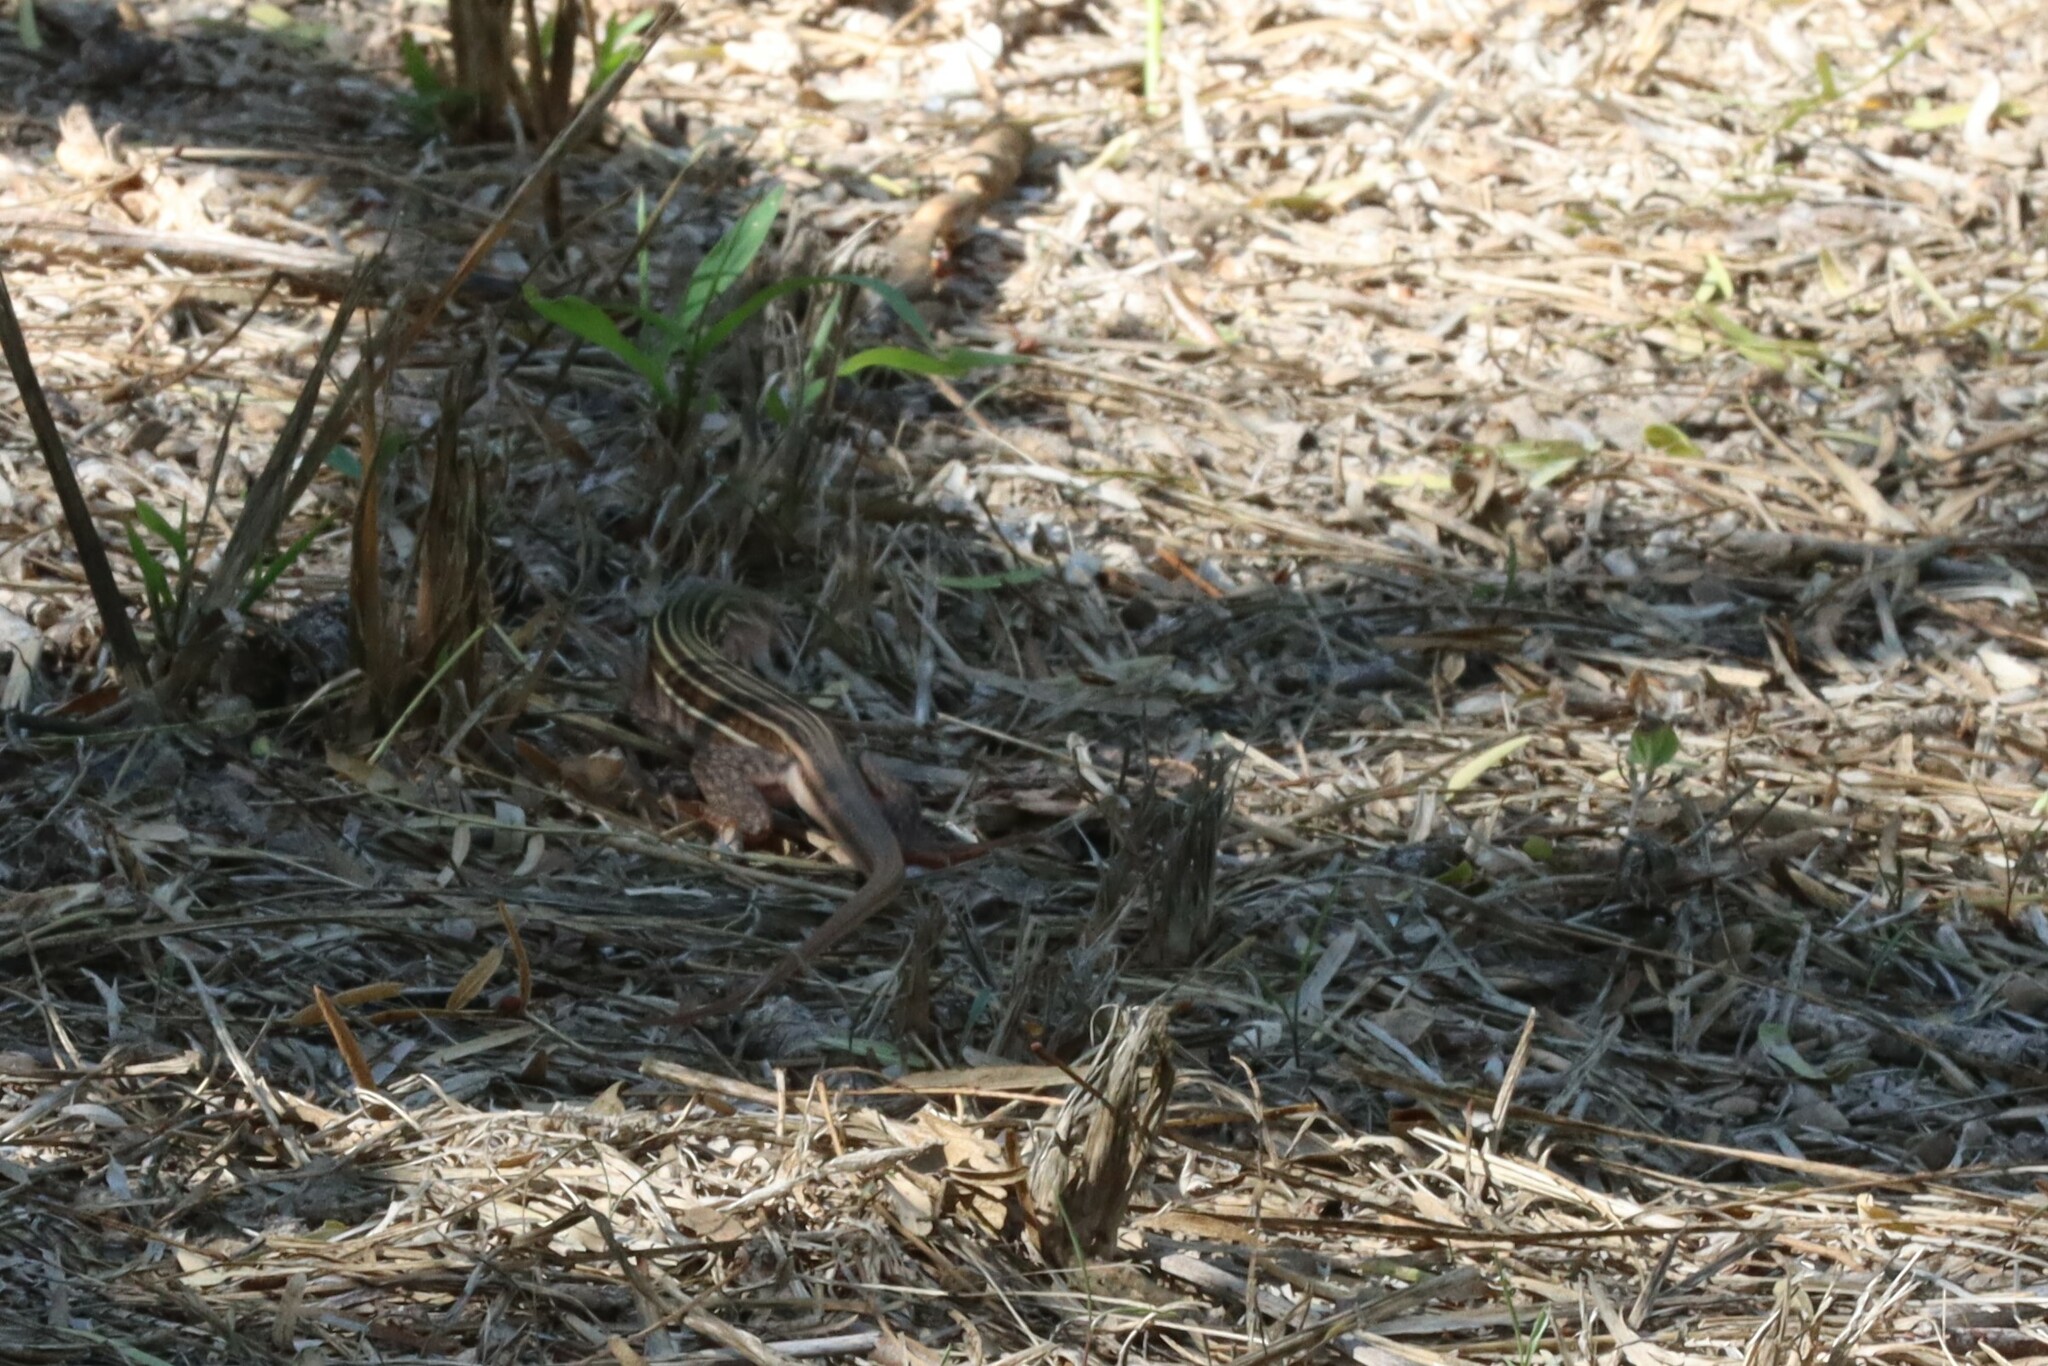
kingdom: Animalia
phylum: Chordata
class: Squamata
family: Teiidae
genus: Aspidoscelis
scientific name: Aspidoscelis gularis
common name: Eastern spotted whiptail
